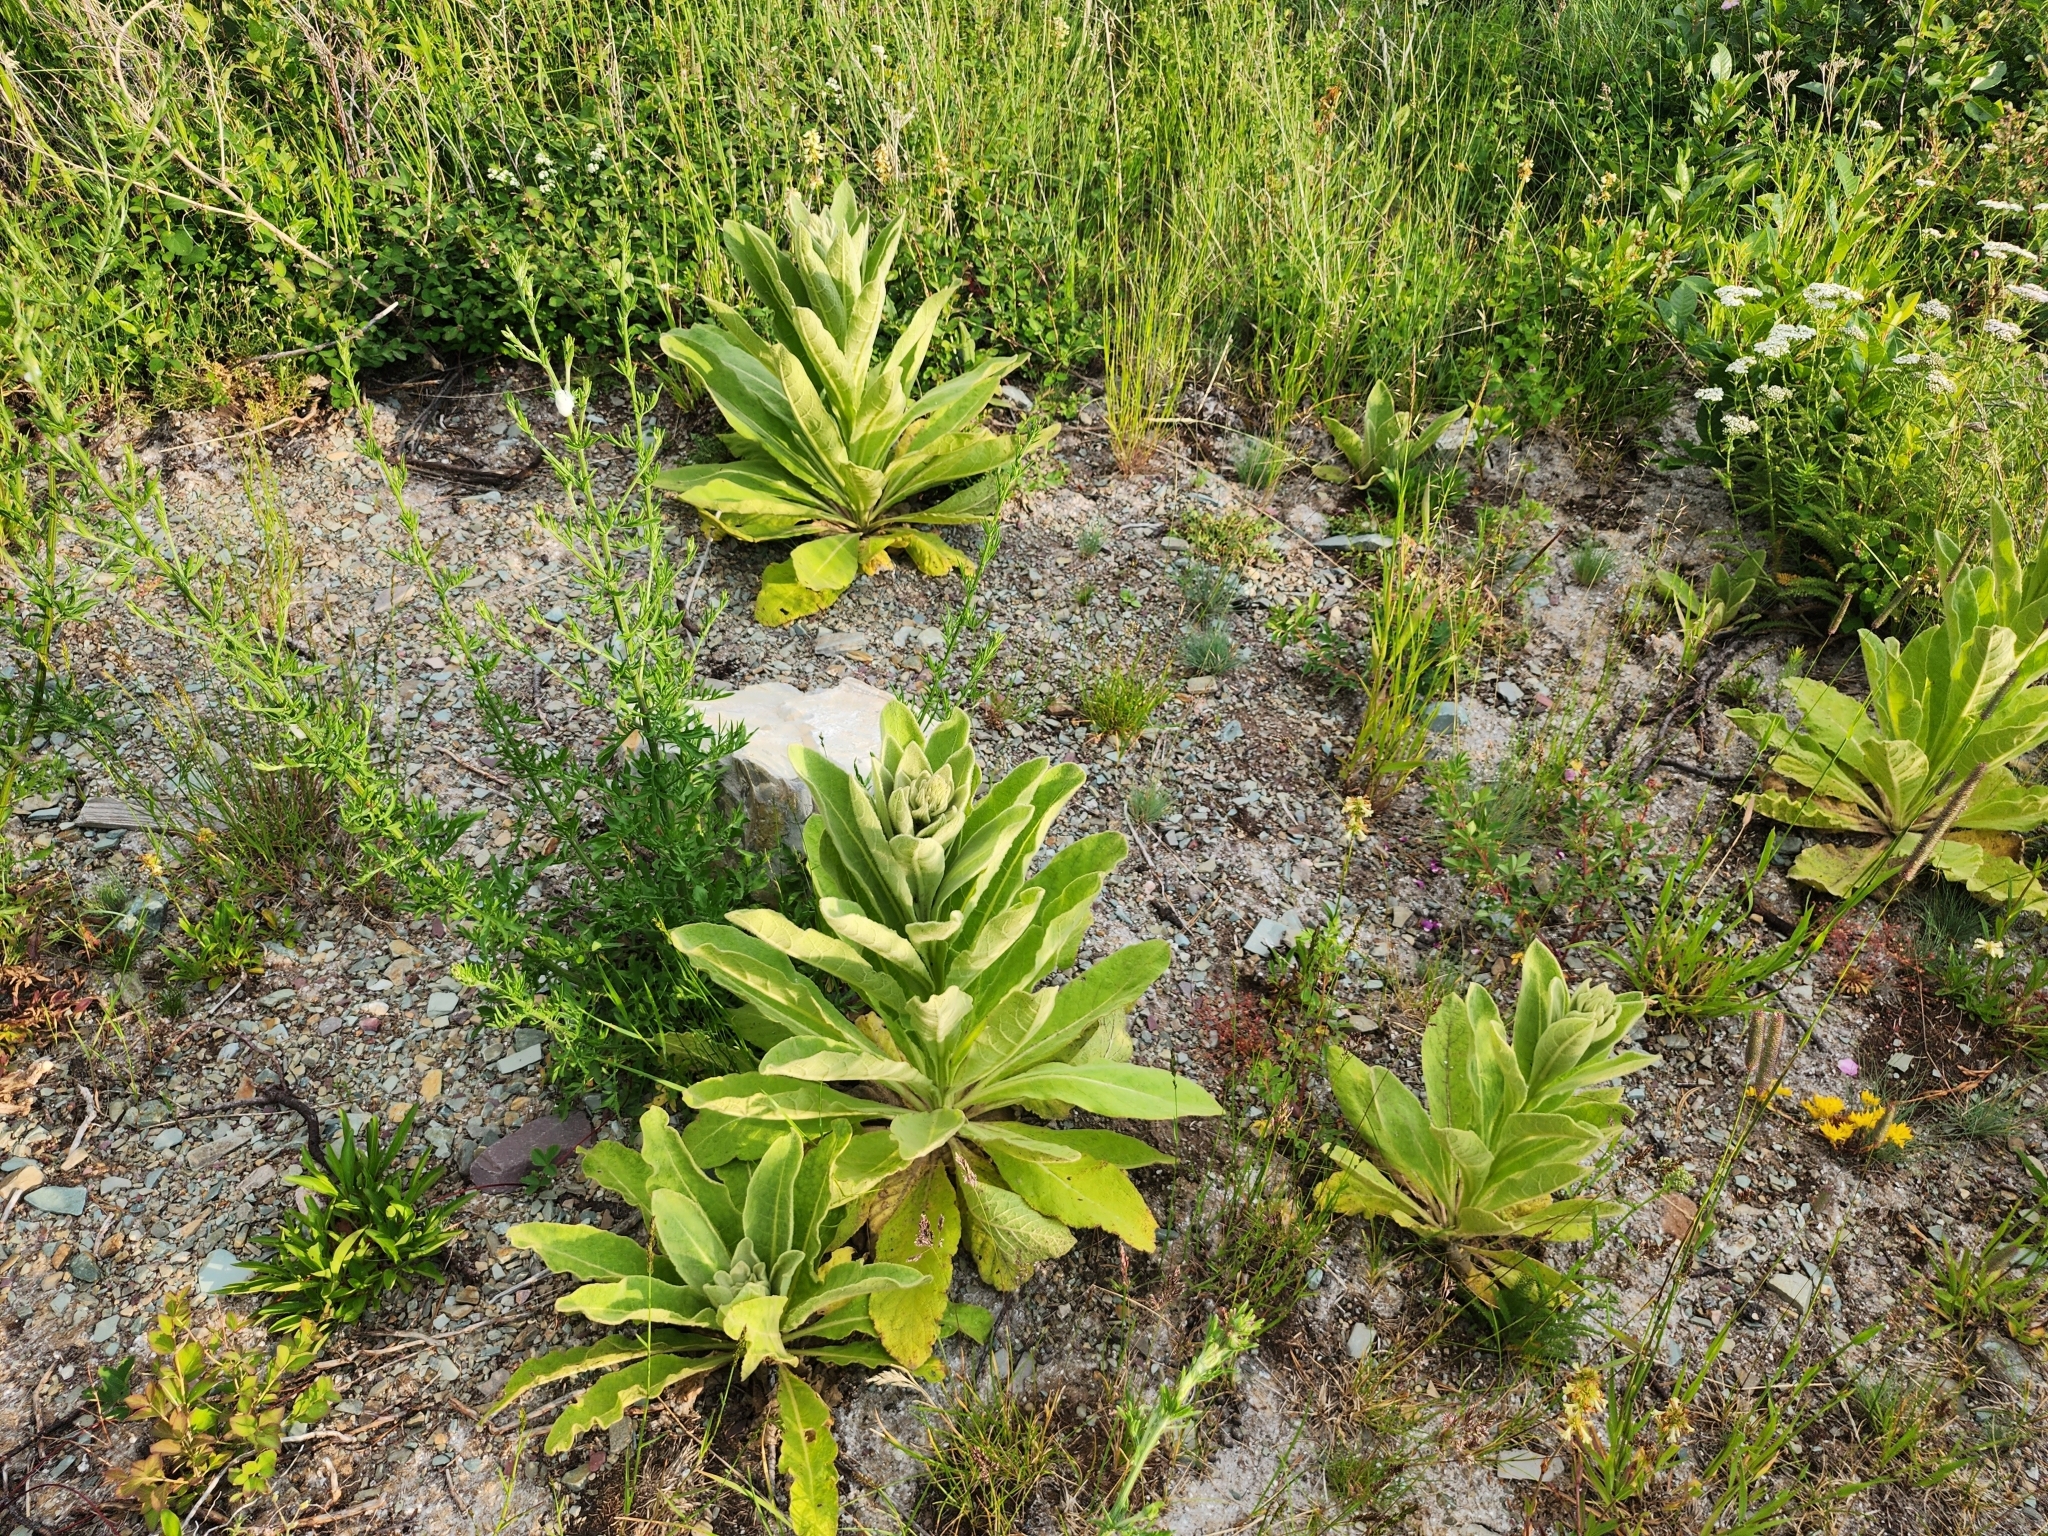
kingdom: Plantae
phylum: Tracheophyta
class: Magnoliopsida
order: Lamiales
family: Scrophulariaceae
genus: Verbascum
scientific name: Verbascum thapsus
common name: Common mullein
